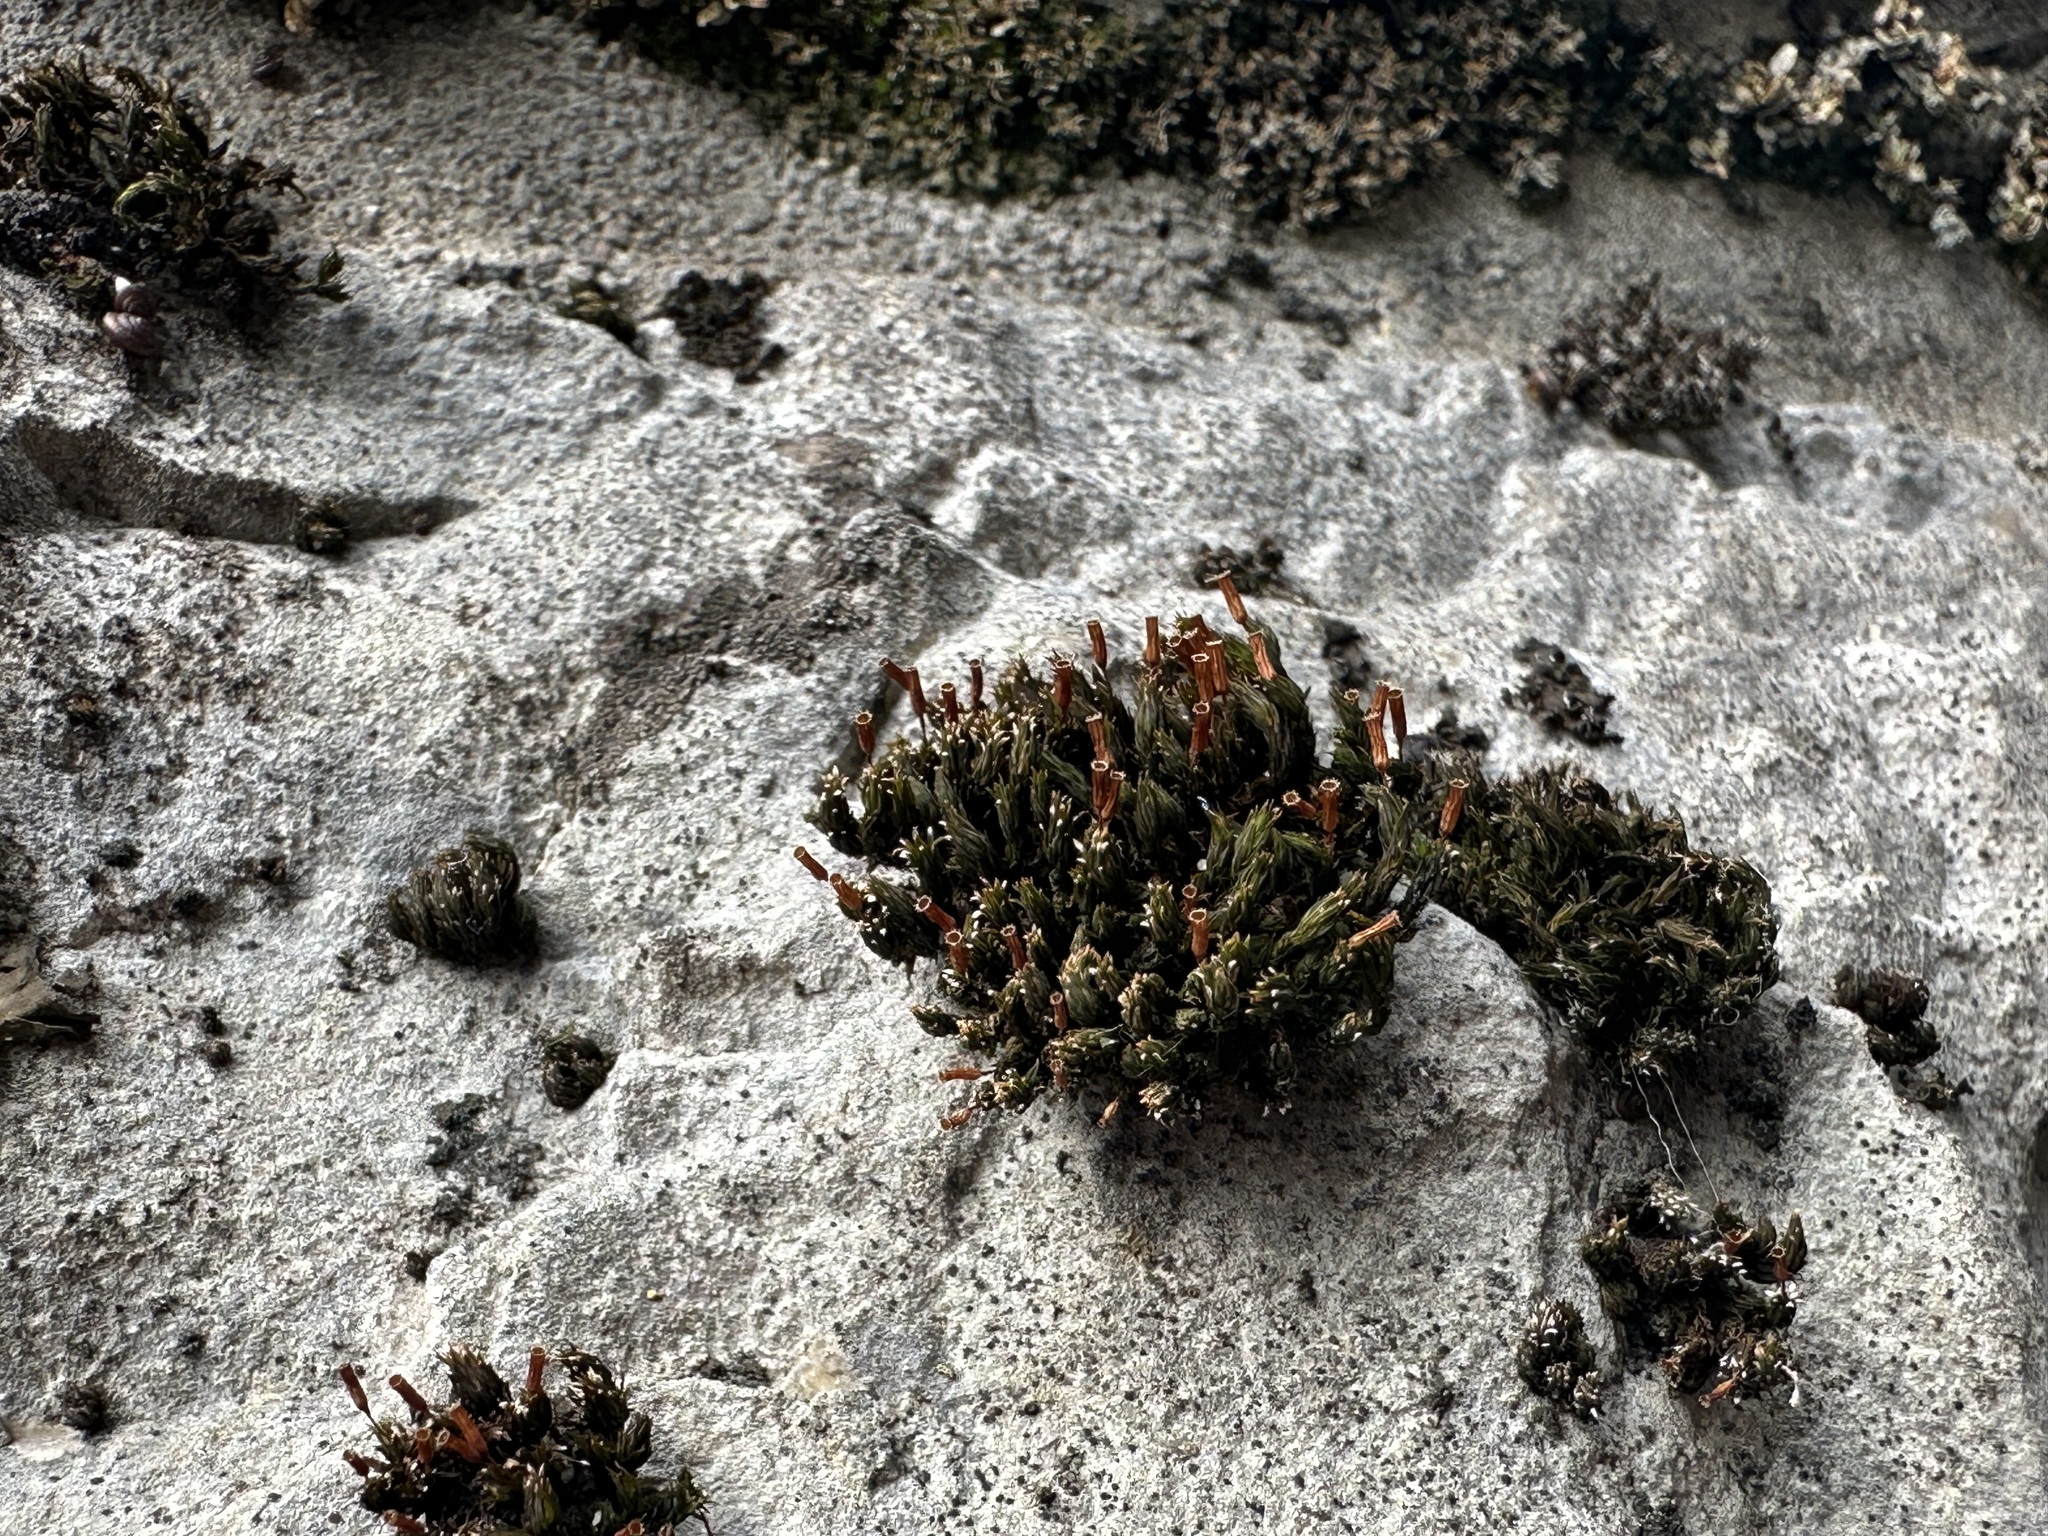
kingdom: Plantae
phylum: Bryophyta
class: Bryopsida
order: Orthotrichales
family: Orthotrichaceae
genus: Orthotrichum
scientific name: Orthotrichum anomalum
